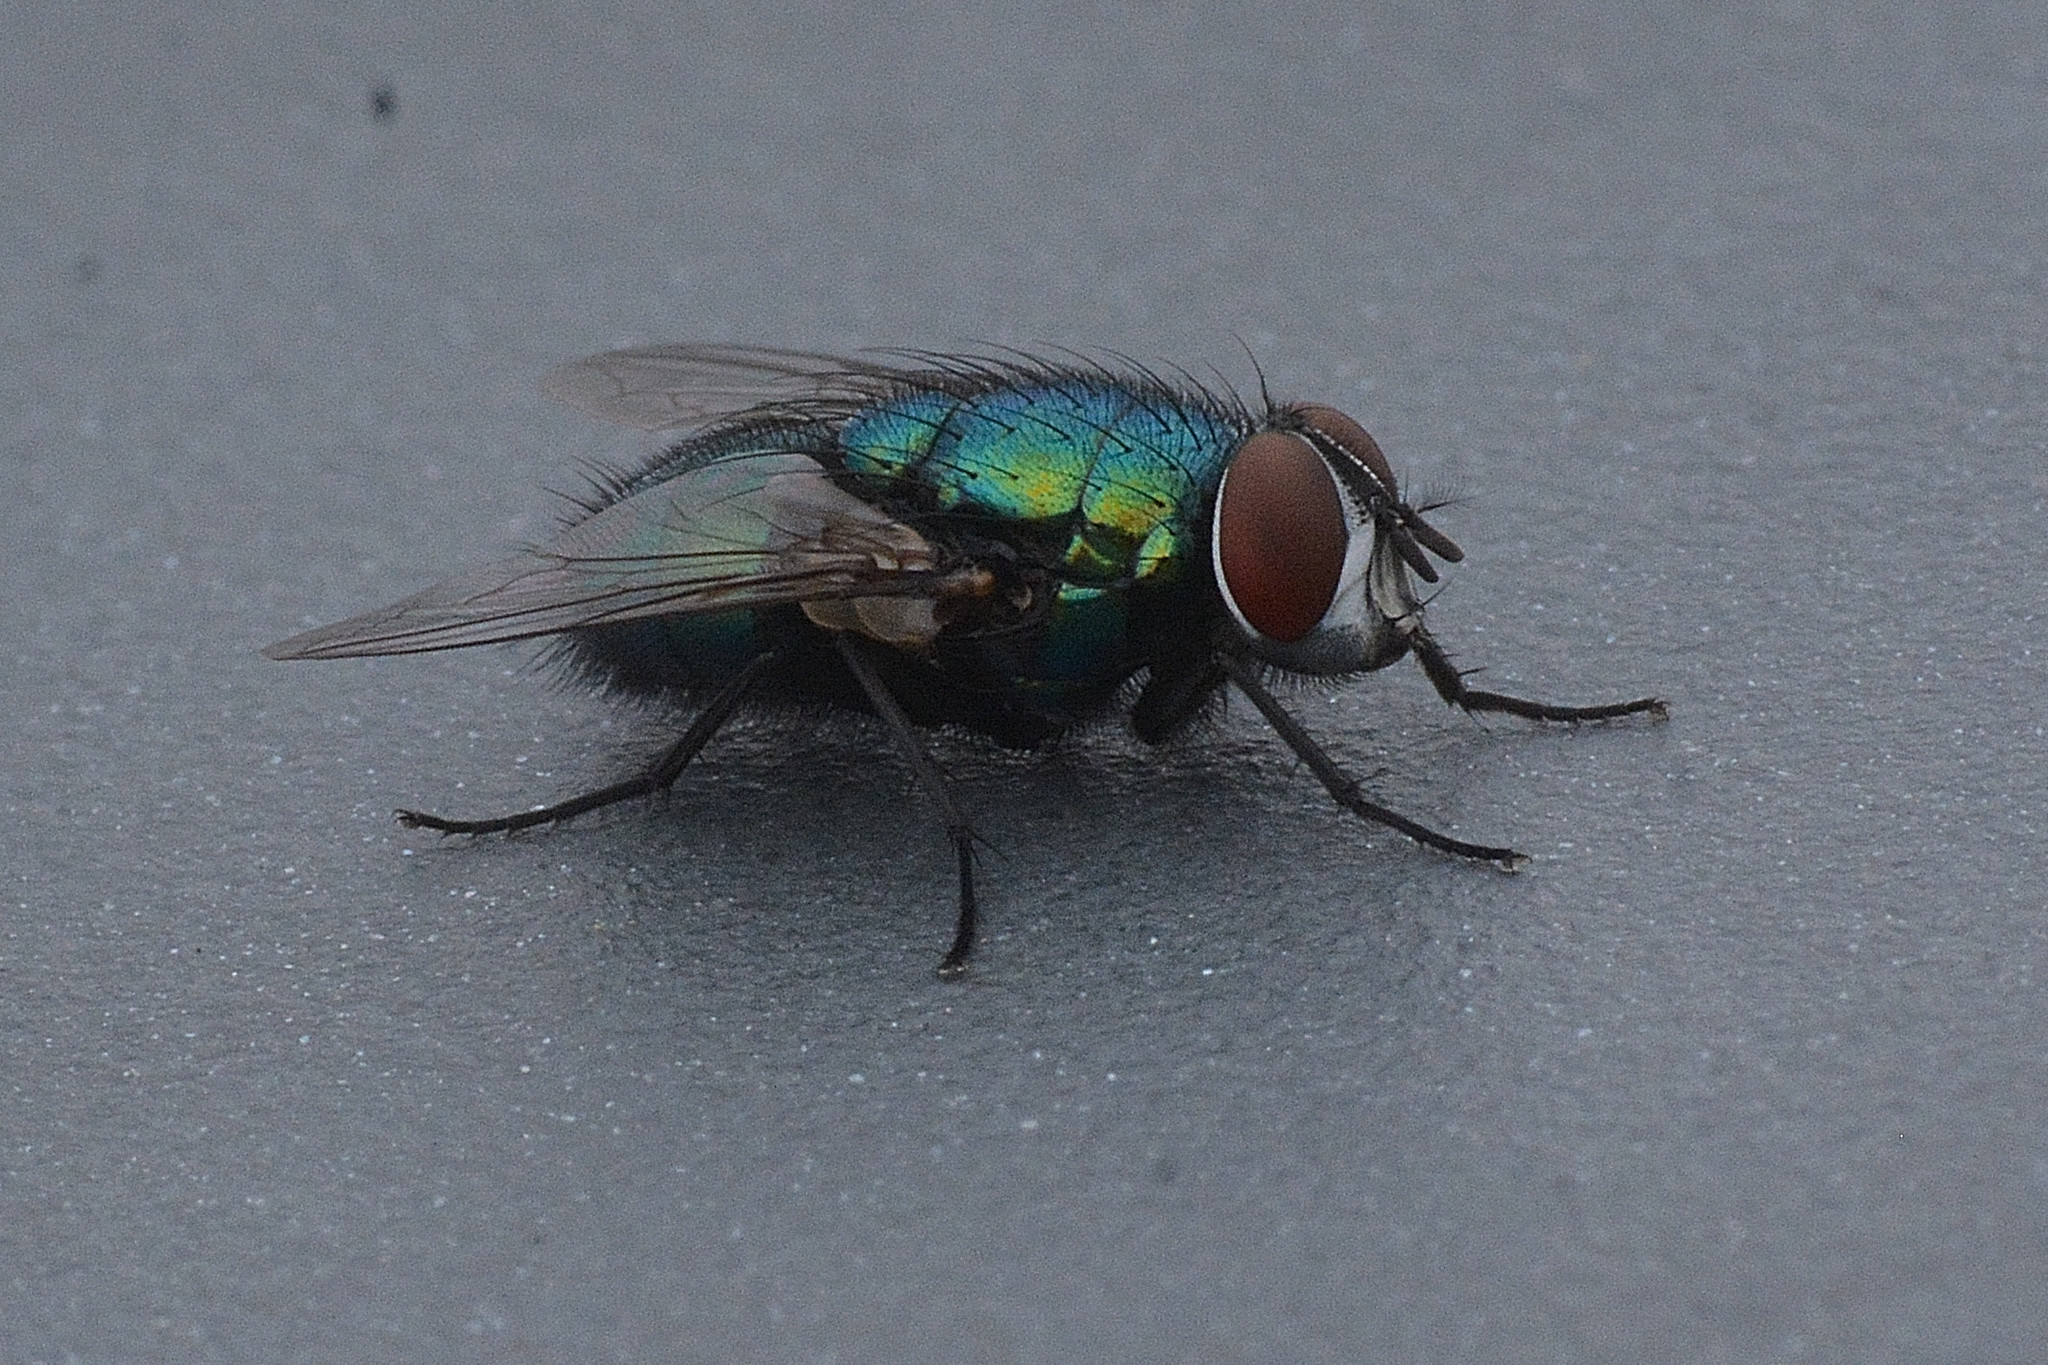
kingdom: Animalia
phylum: Arthropoda
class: Insecta
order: Diptera
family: Calliphoridae
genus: Lucilia
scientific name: Lucilia sericata
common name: Blow fly
